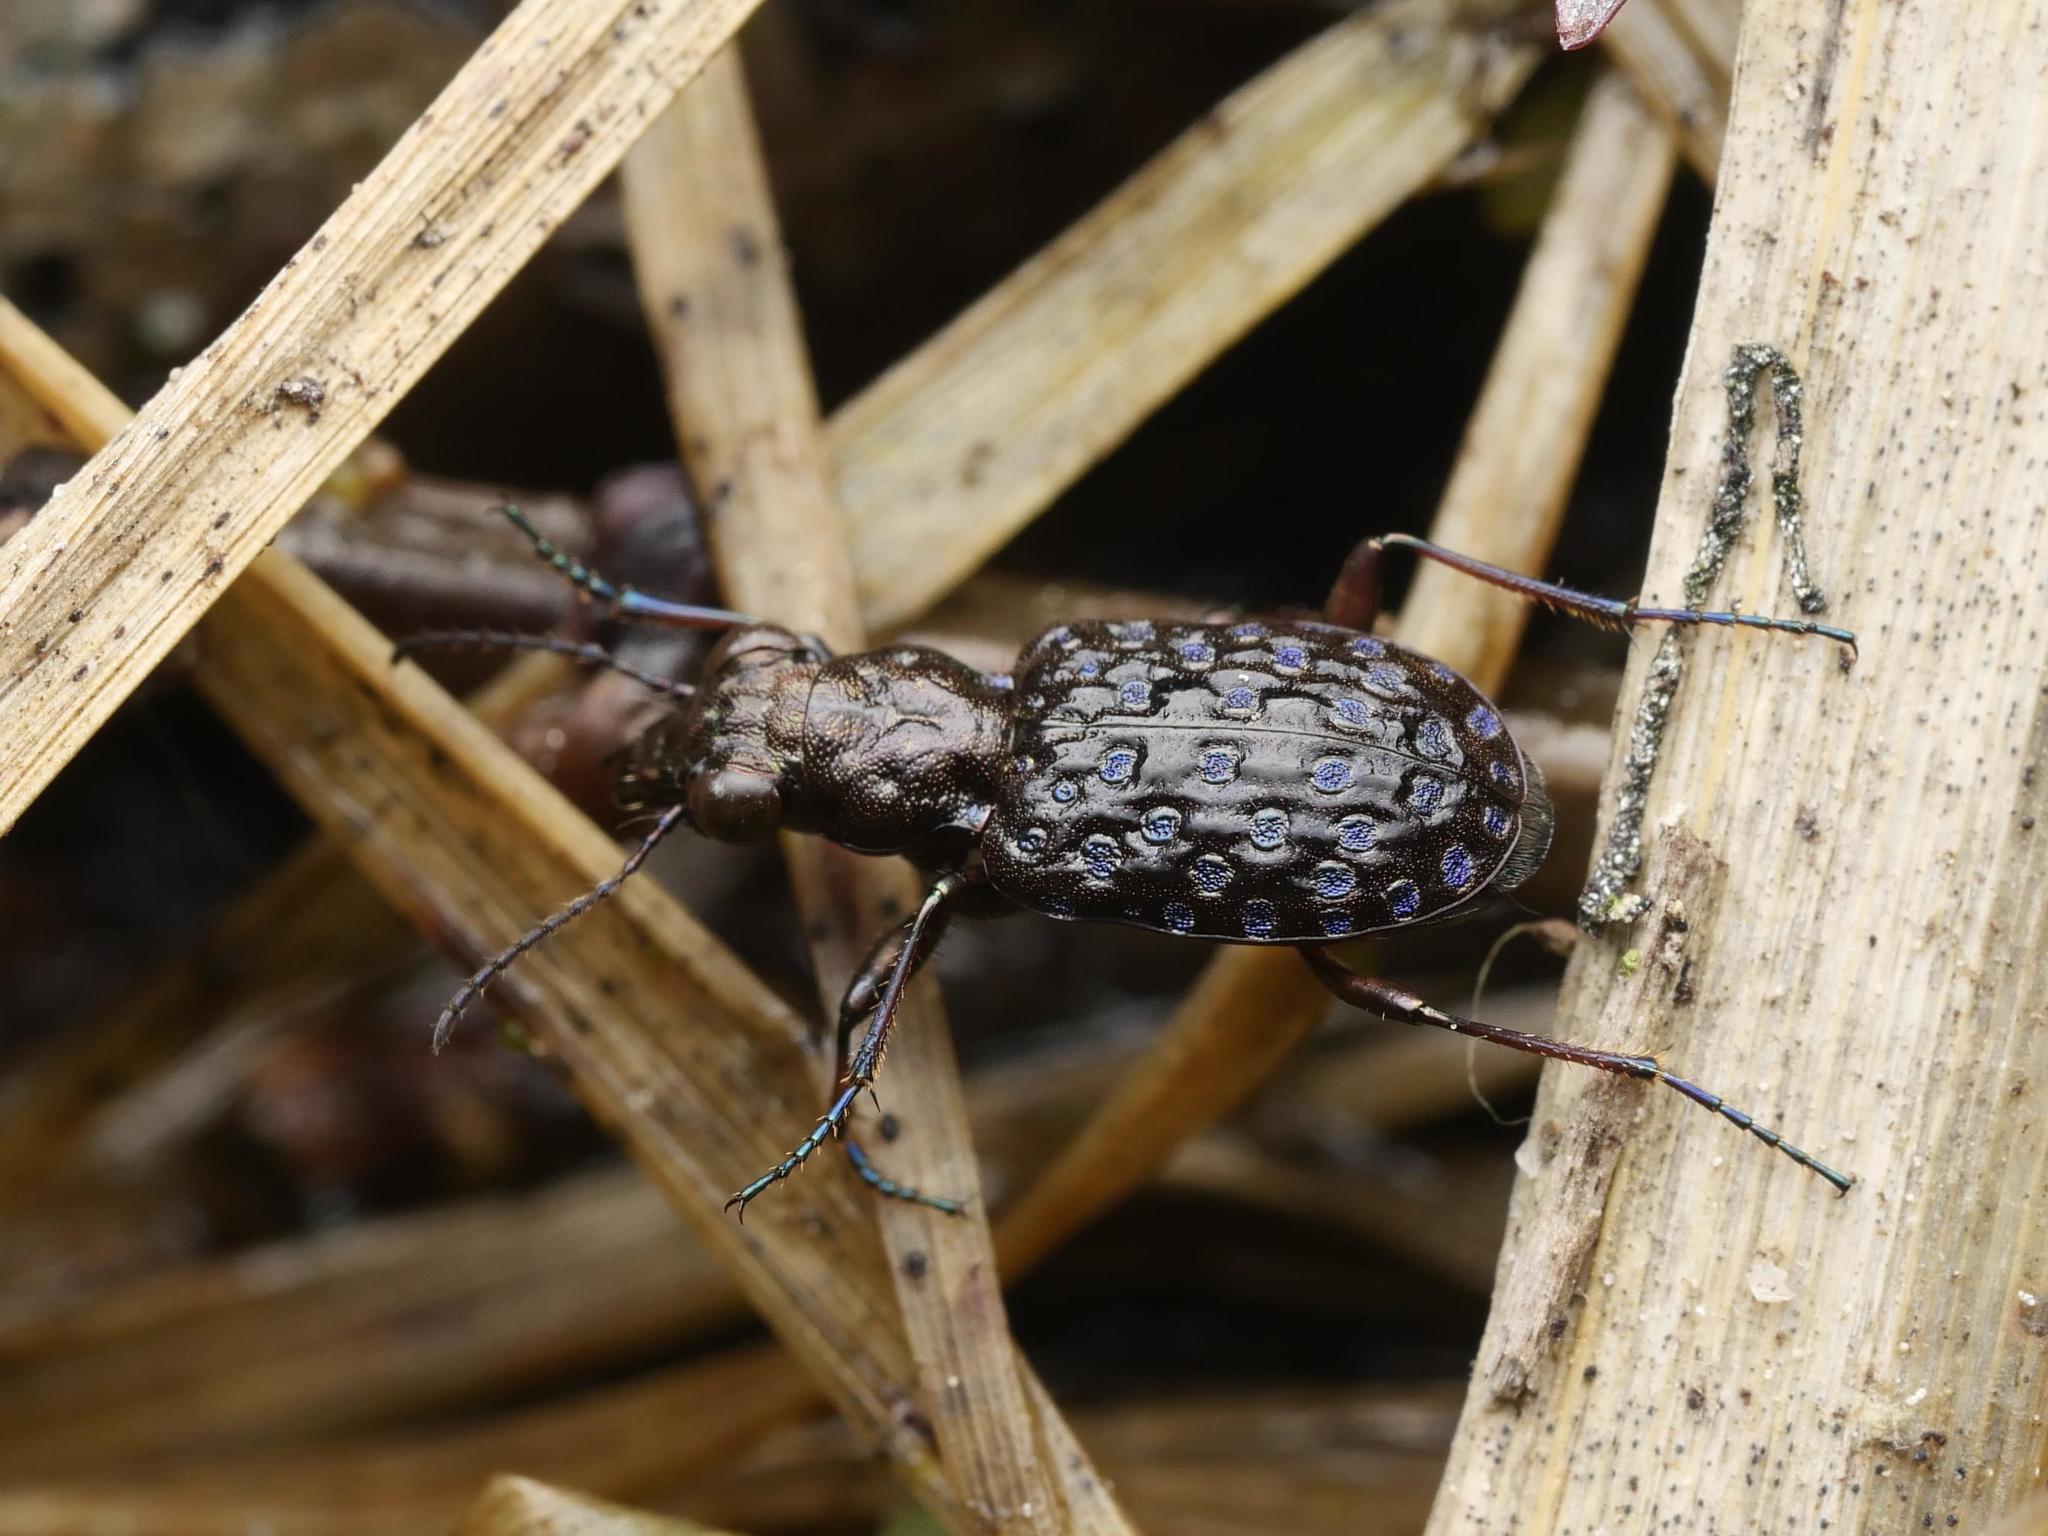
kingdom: Animalia
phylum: Arthropoda
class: Insecta
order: Coleoptera
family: Carabidae
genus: Elaphrus
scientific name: Elaphrus cupreus
